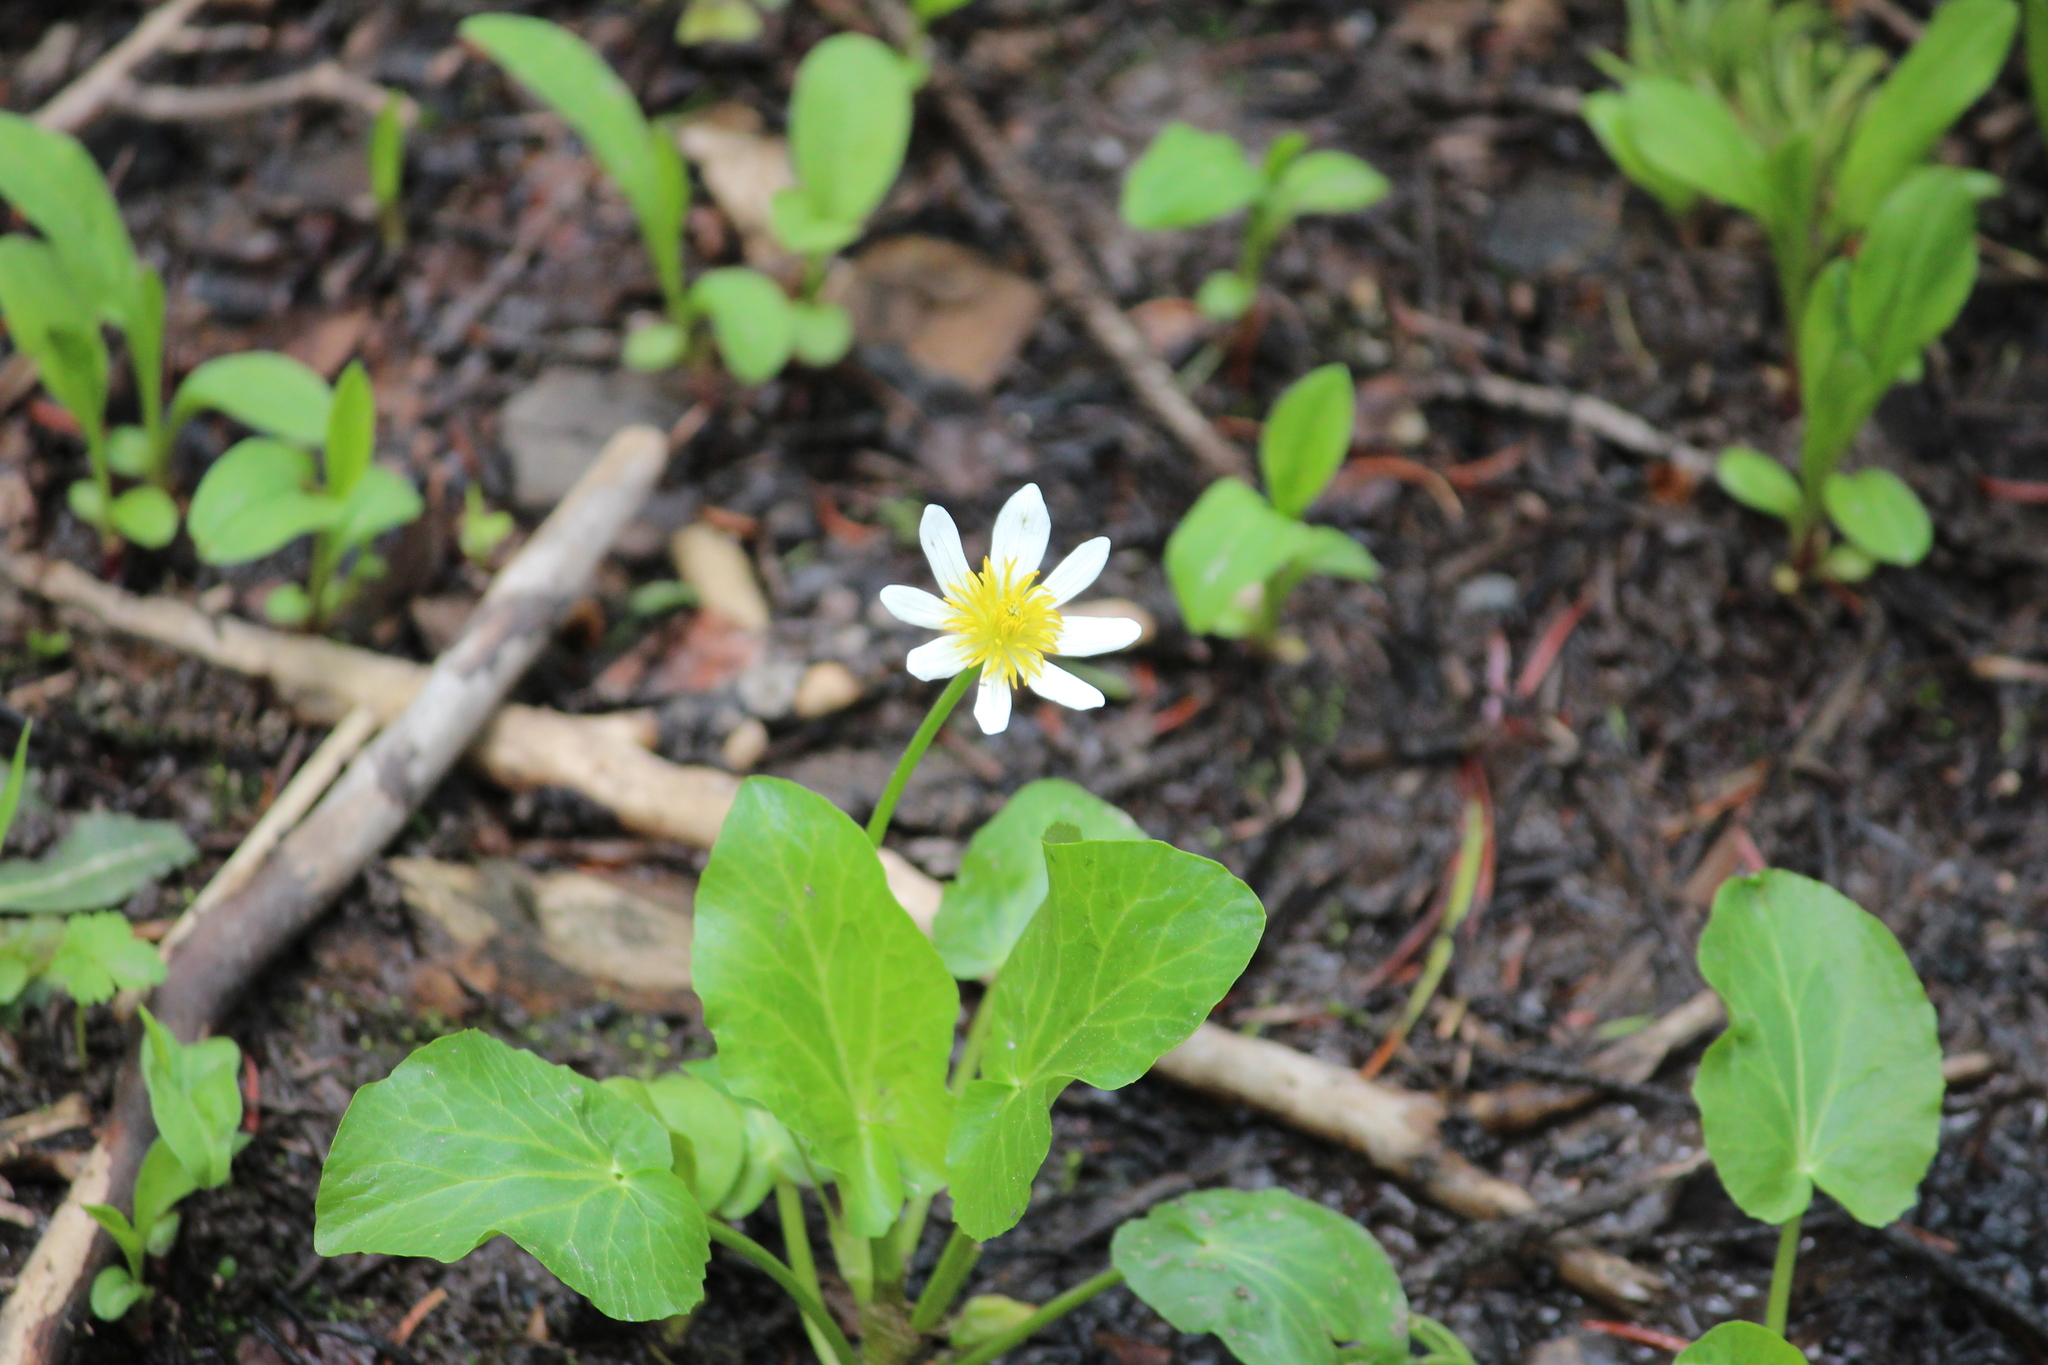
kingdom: Plantae
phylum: Tracheophyta
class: Magnoliopsida
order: Ranunculales
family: Ranunculaceae
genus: Caltha
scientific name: Caltha leptosepala
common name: Elkslip
